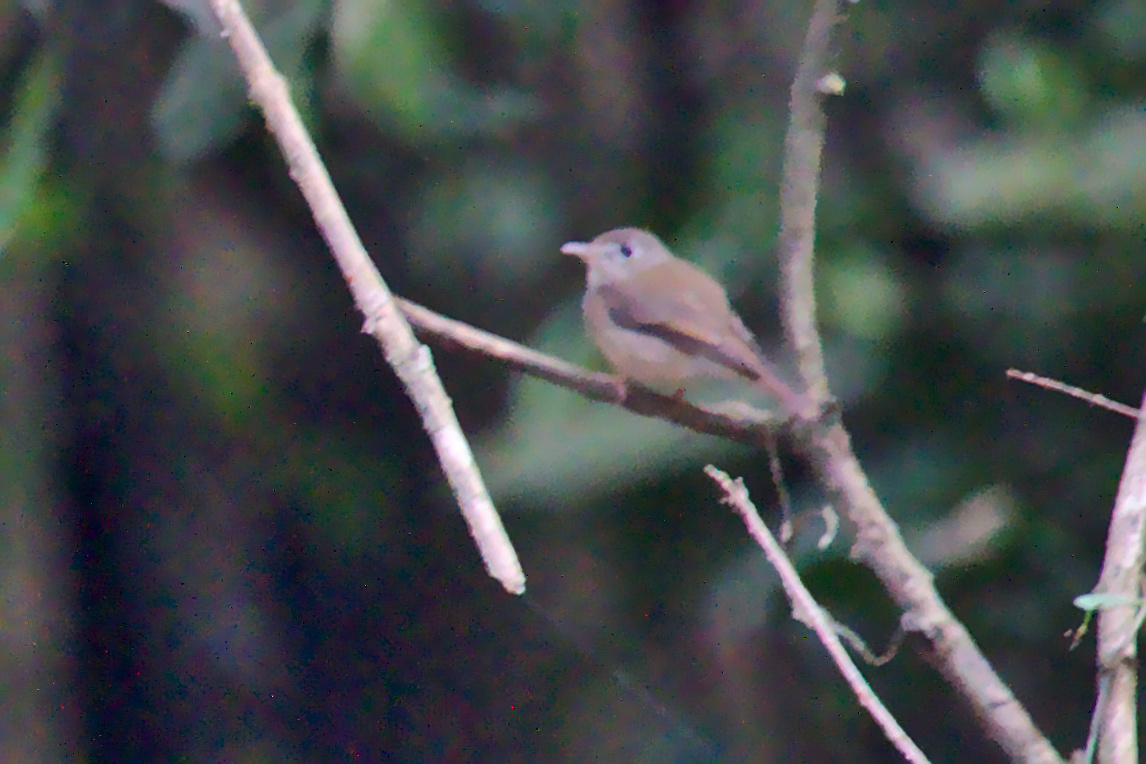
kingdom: Animalia
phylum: Chordata
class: Aves
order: Passeriformes
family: Muscicapidae
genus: Muscicapa
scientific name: Muscicapa muttui
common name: Brown-breasted flycatcher
